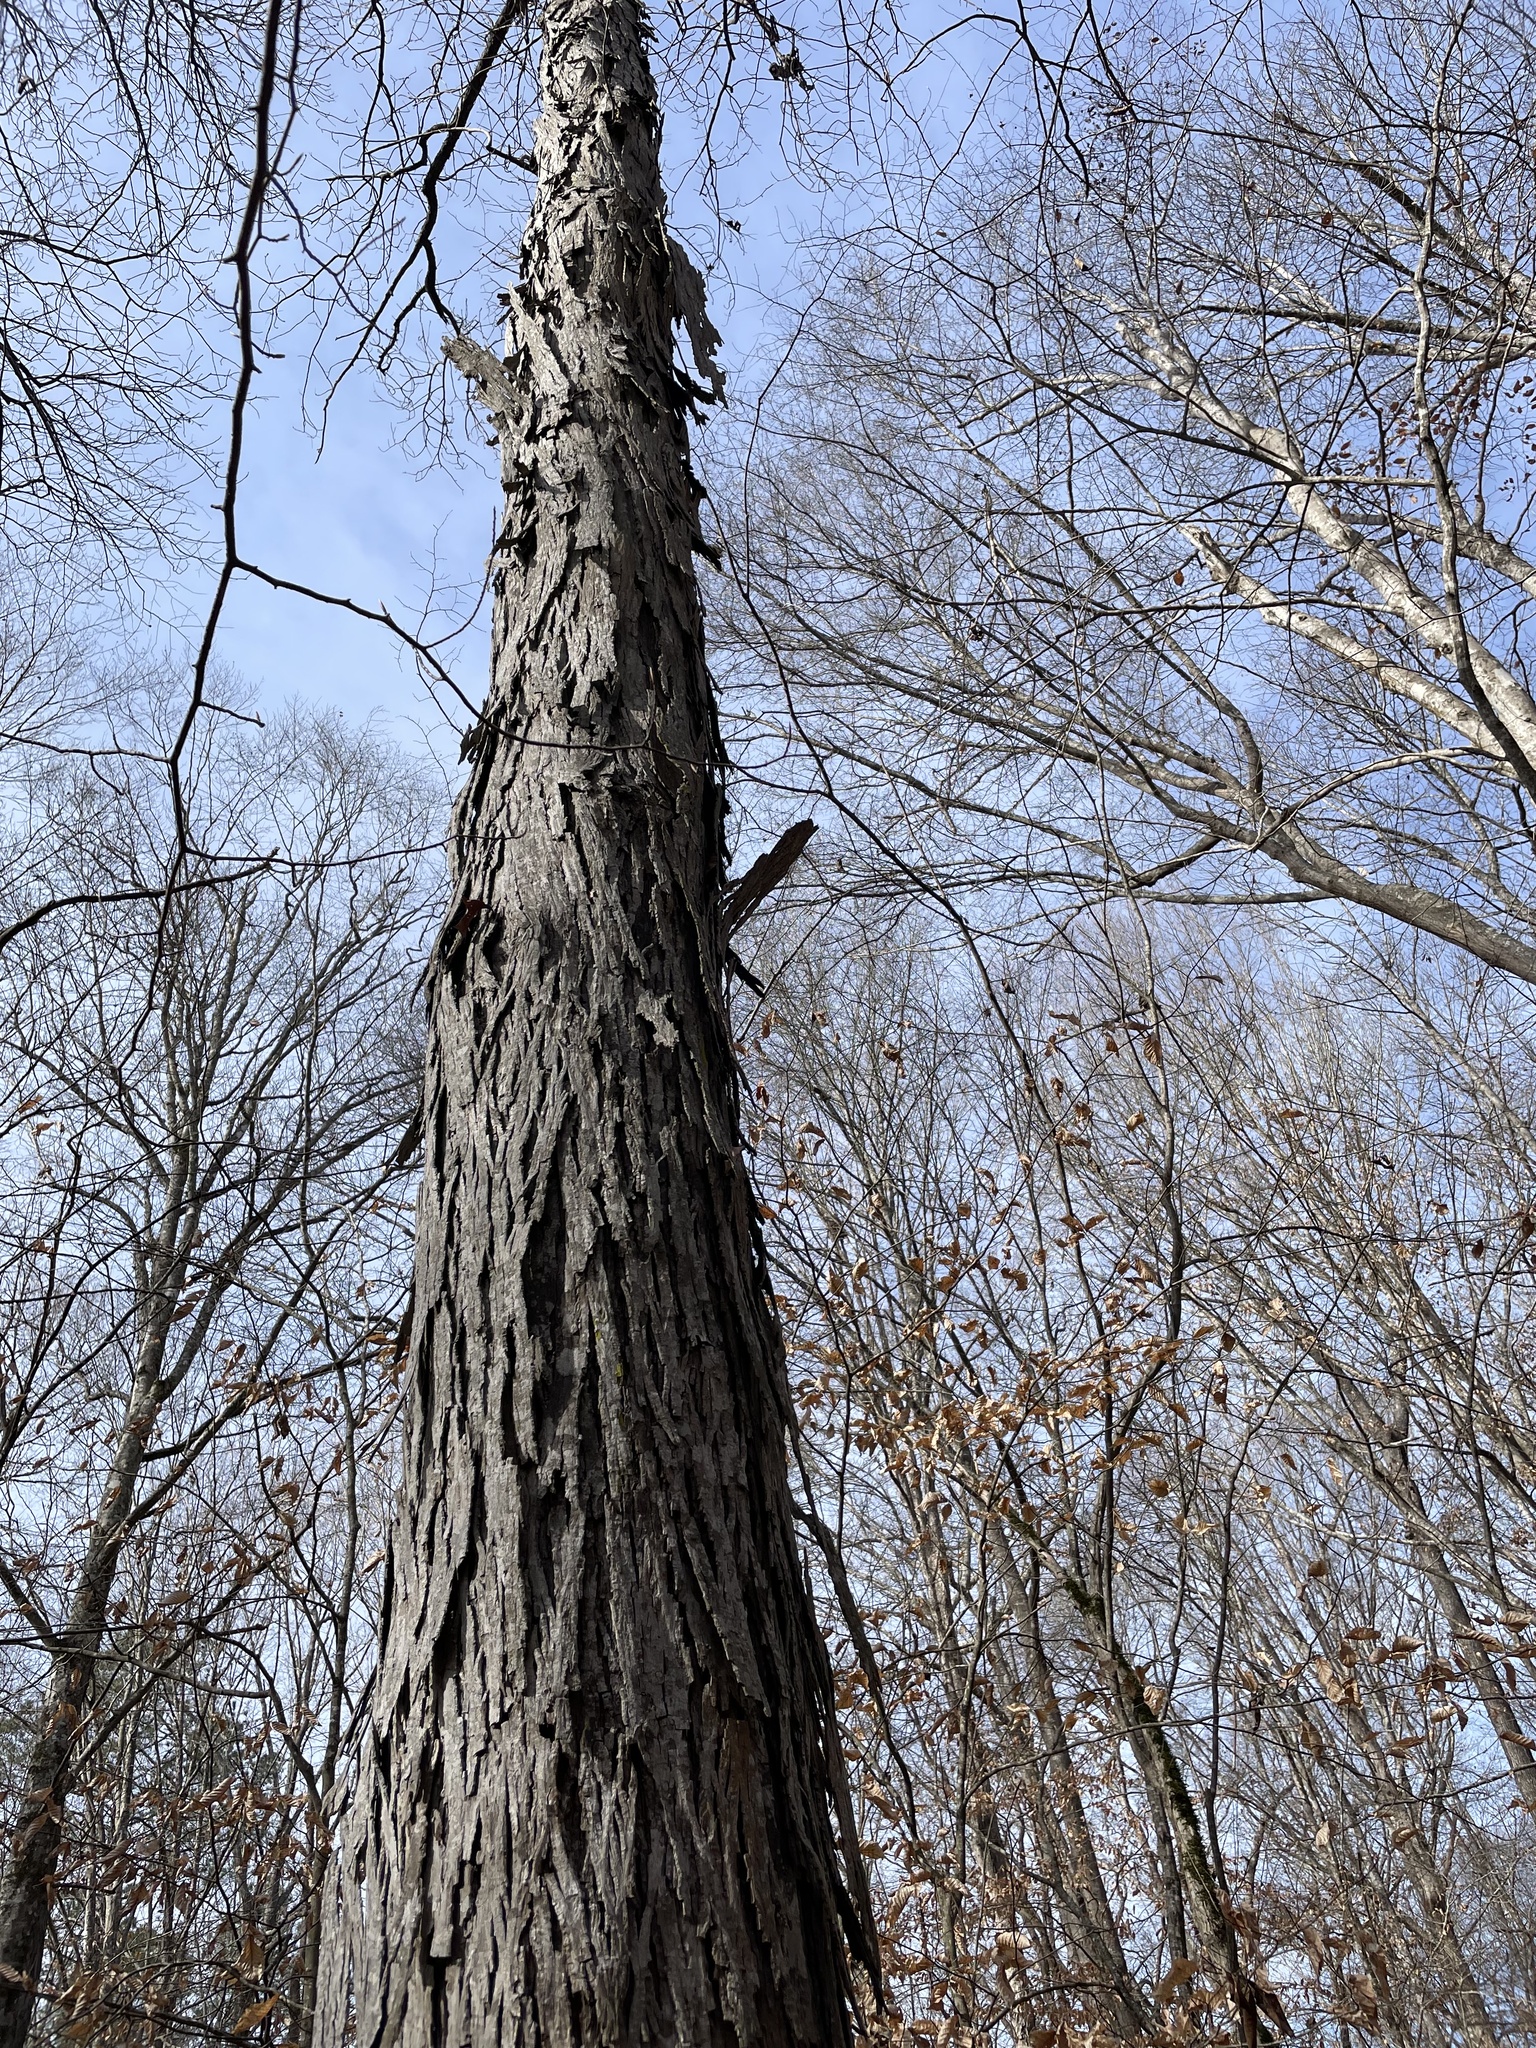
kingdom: Plantae
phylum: Tracheophyta
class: Magnoliopsida
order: Fagales
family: Juglandaceae
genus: Carya
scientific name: Carya ovata
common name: Shagbark hickory
